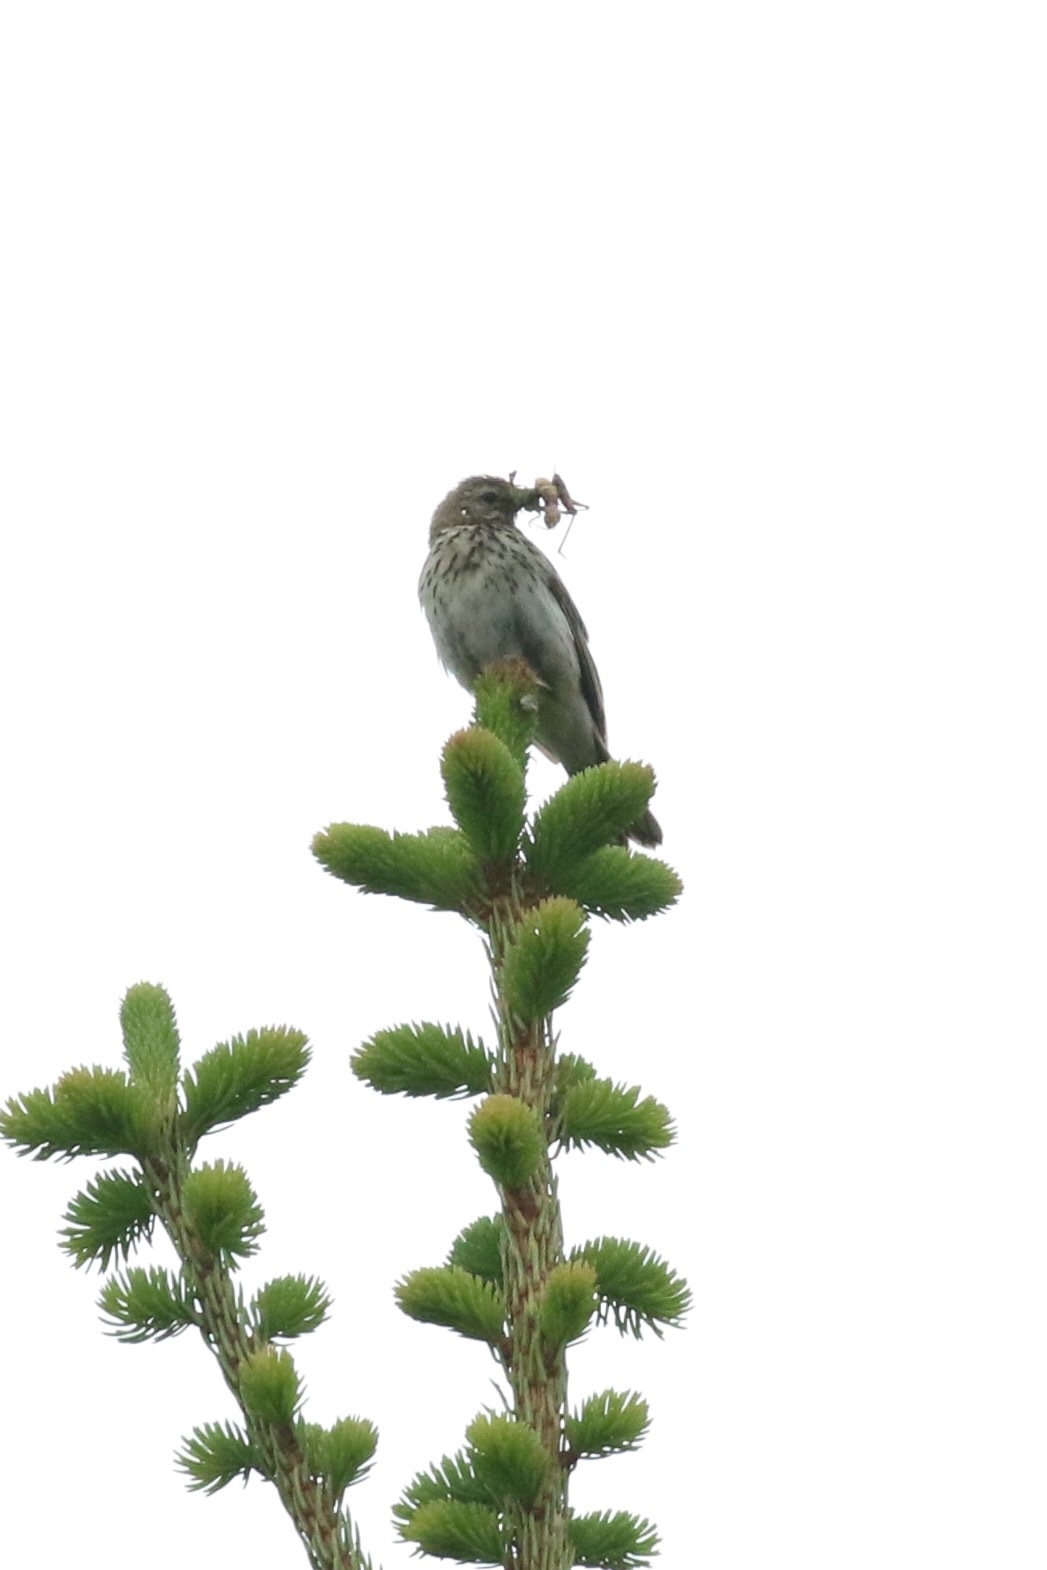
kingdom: Animalia
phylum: Chordata
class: Aves
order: Passeriformes
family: Motacillidae
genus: Anthus
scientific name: Anthus trivialis
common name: Tree pipit
